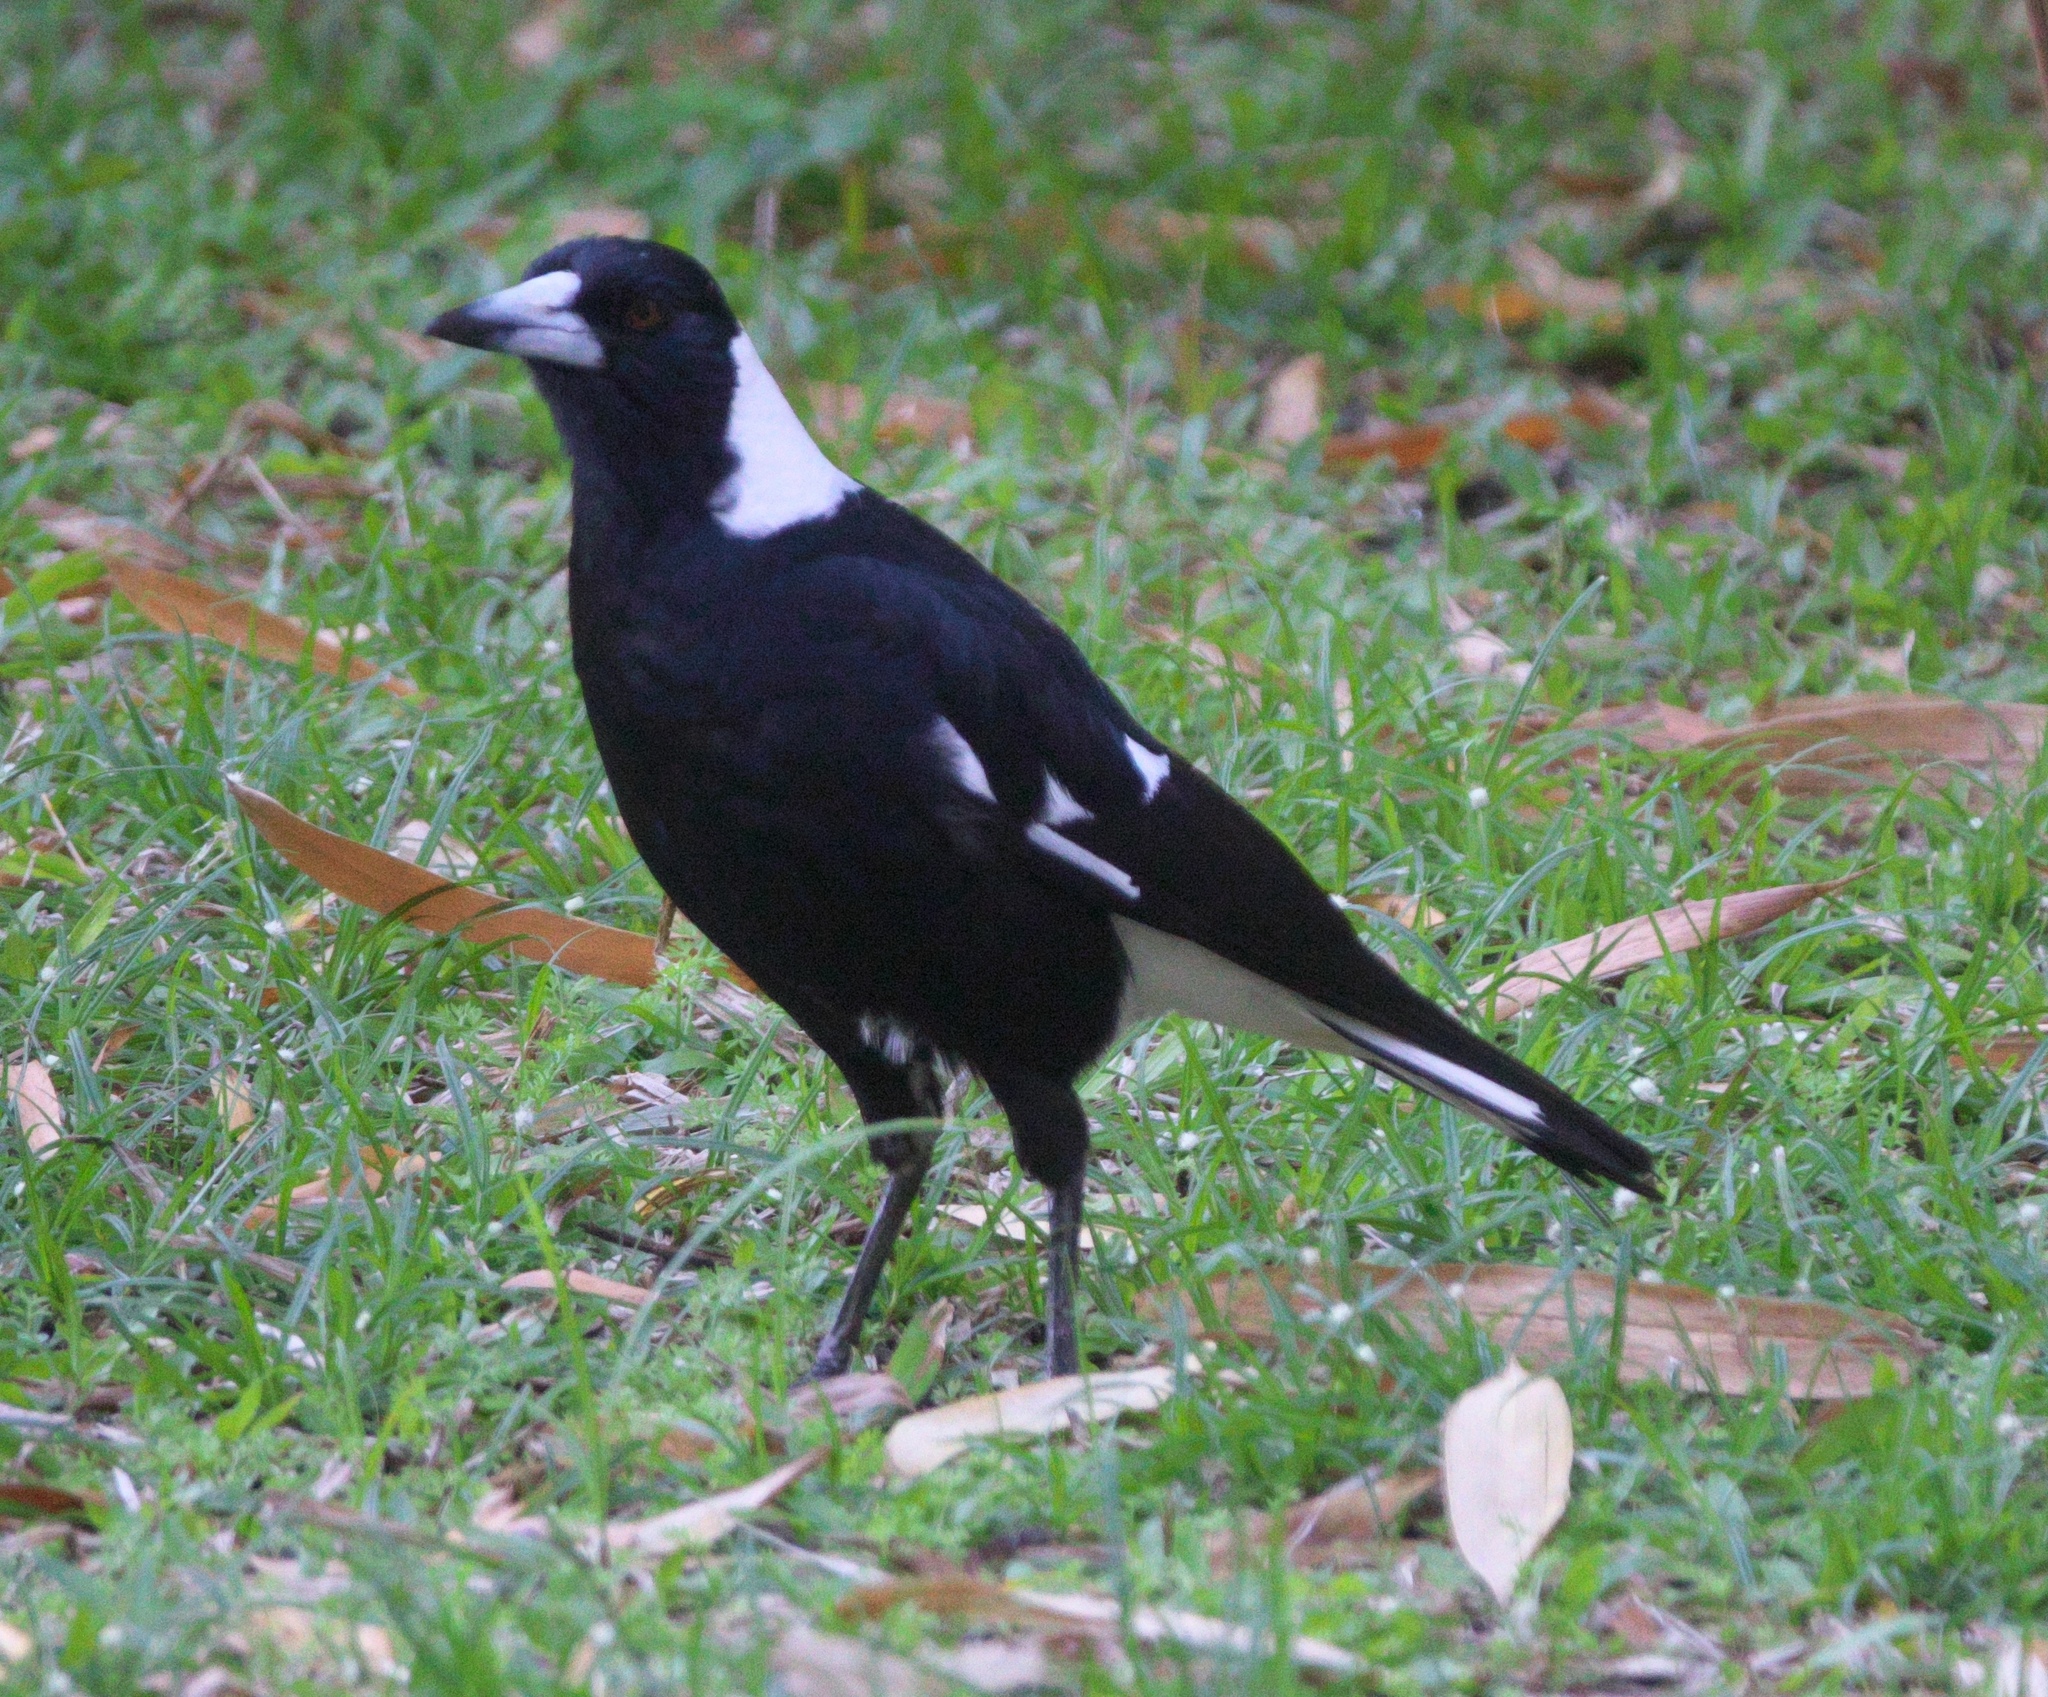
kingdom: Animalia
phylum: Chordata
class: Aves
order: Passeriformes
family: Cracticidae
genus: Gymnorhina
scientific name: Gymnorhina tibicen
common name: Australian magpie
